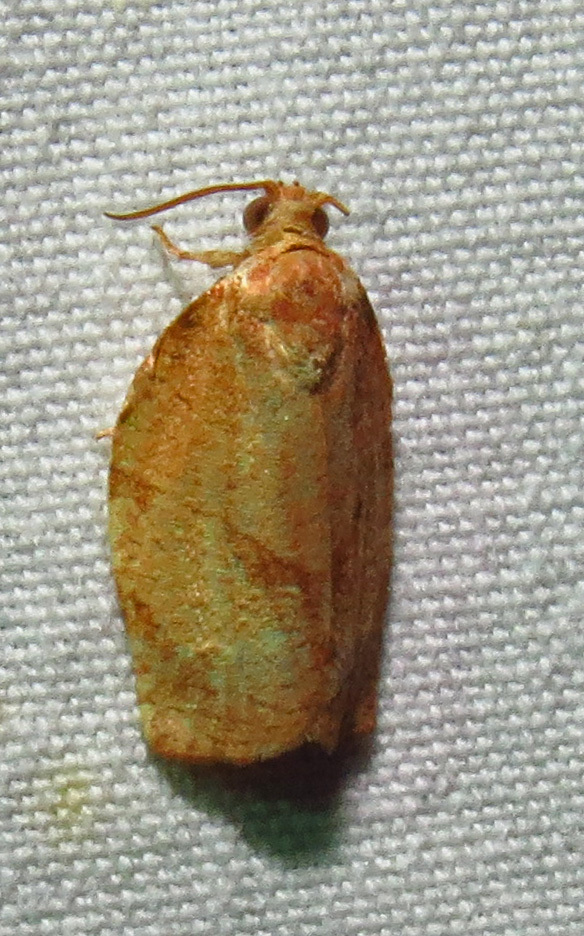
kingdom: Animalia
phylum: Arthropoda
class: Insecta
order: Lepidoptera
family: Tortricidae
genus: Choristoneura
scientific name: Choristoneura rosaceana
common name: Oblique-banded leafroller moth
